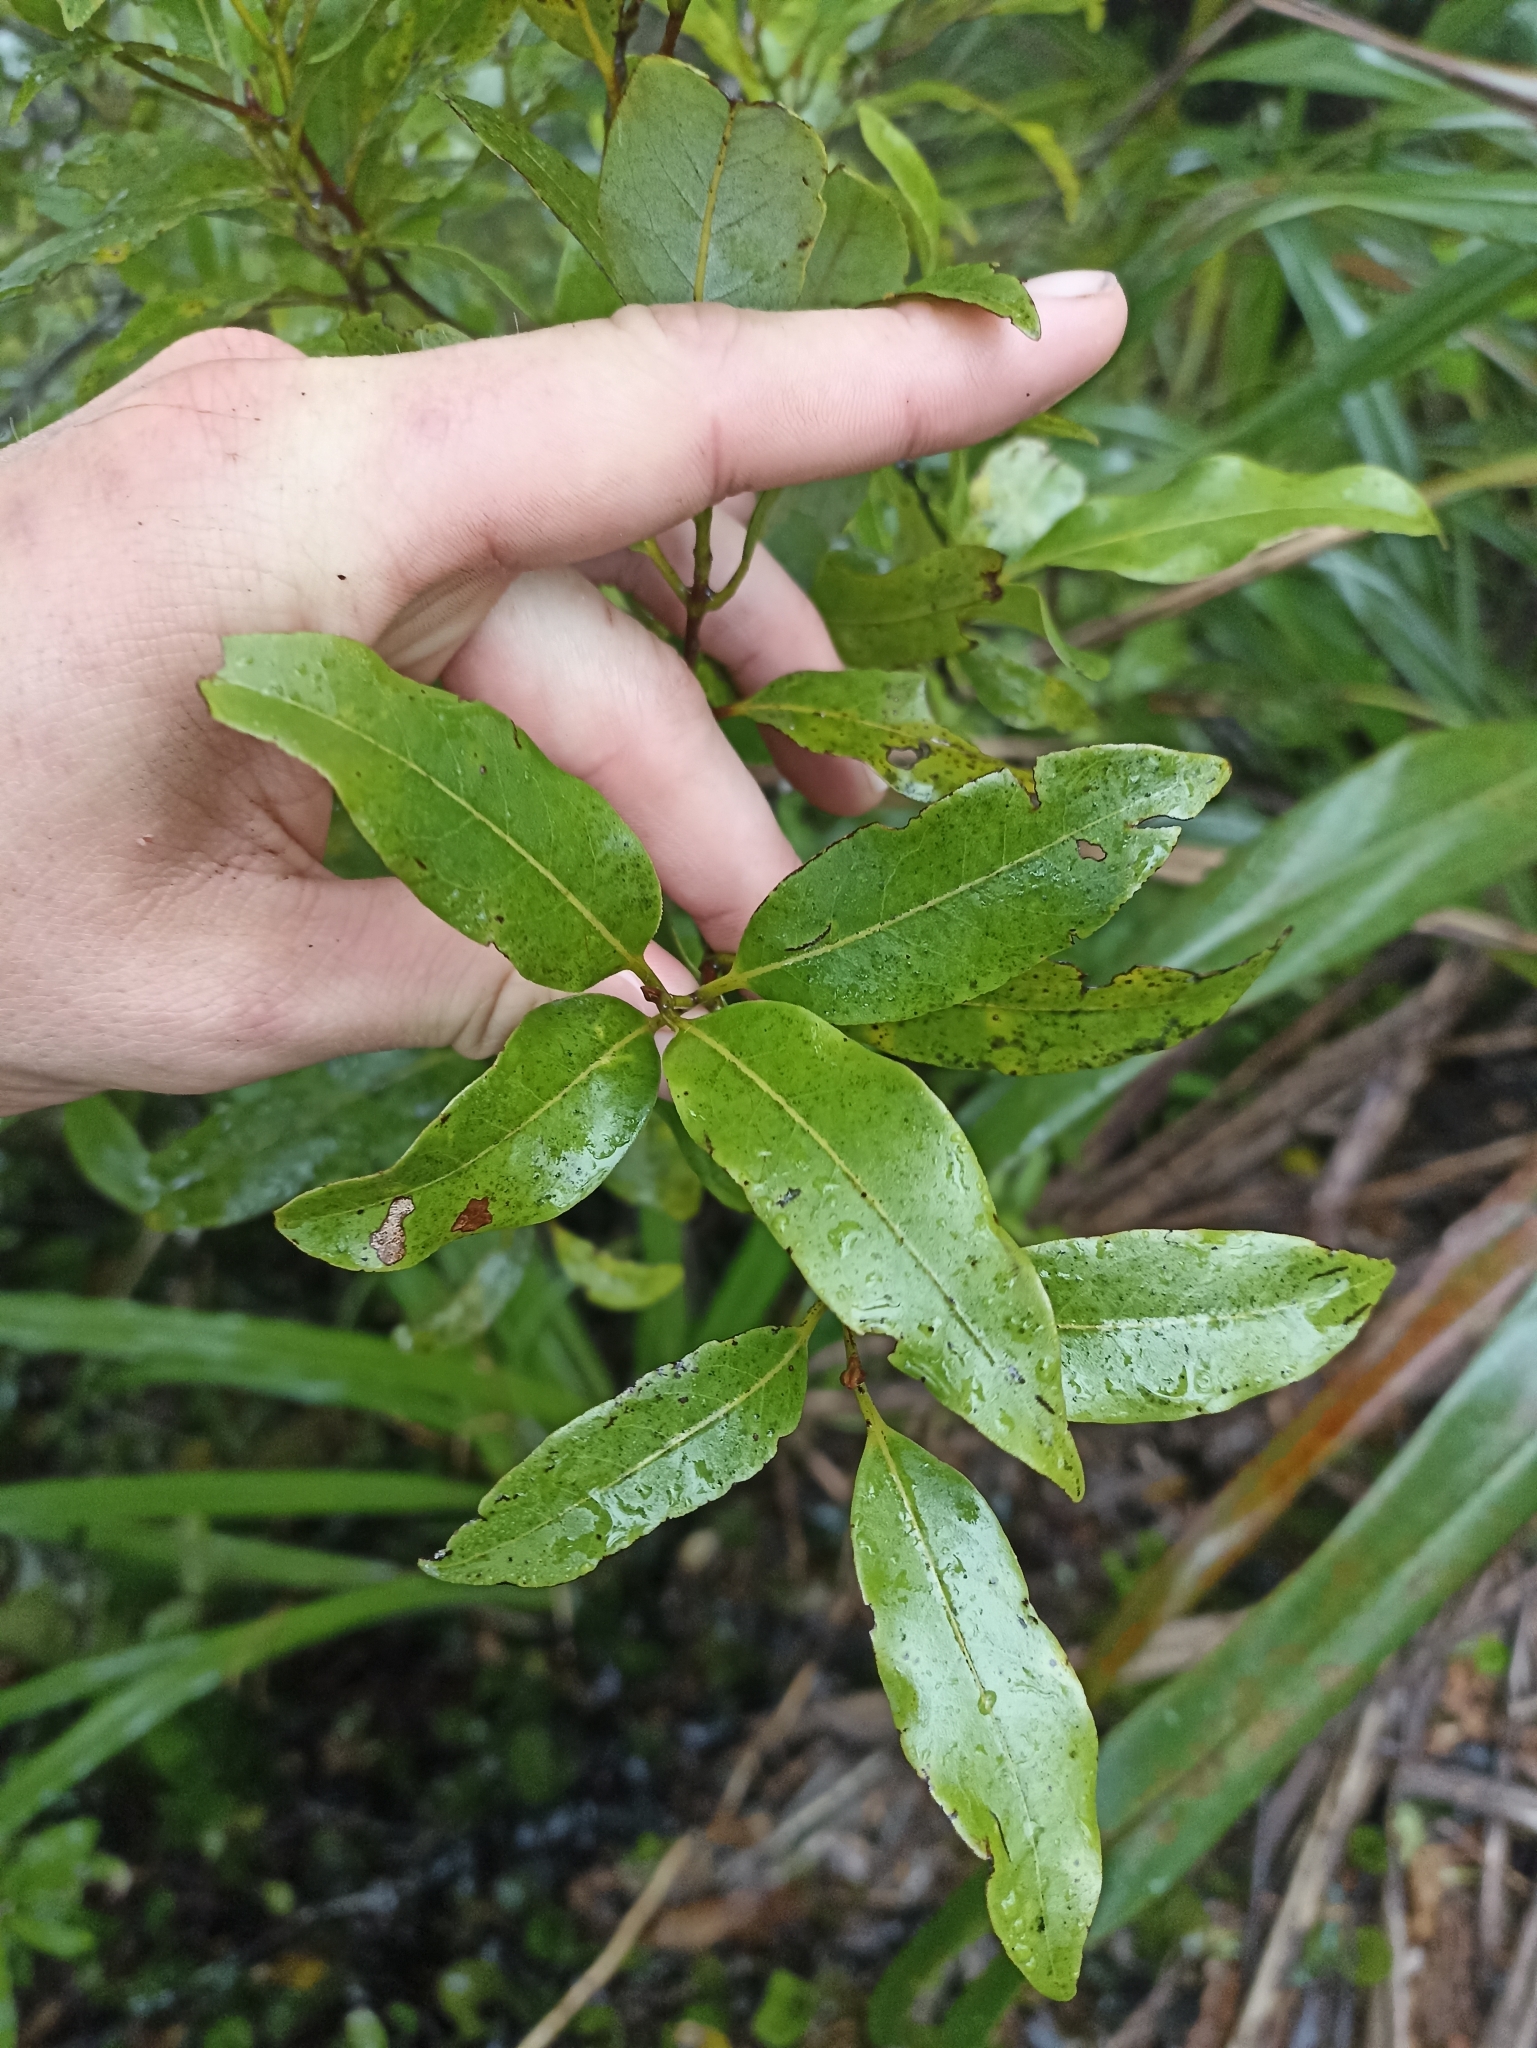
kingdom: Plantae
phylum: Tracheophyta
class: Magnoliopsida
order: Gentianales
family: Rubiaceae
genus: Coprosma
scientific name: Coprosma dodonaeifolia
